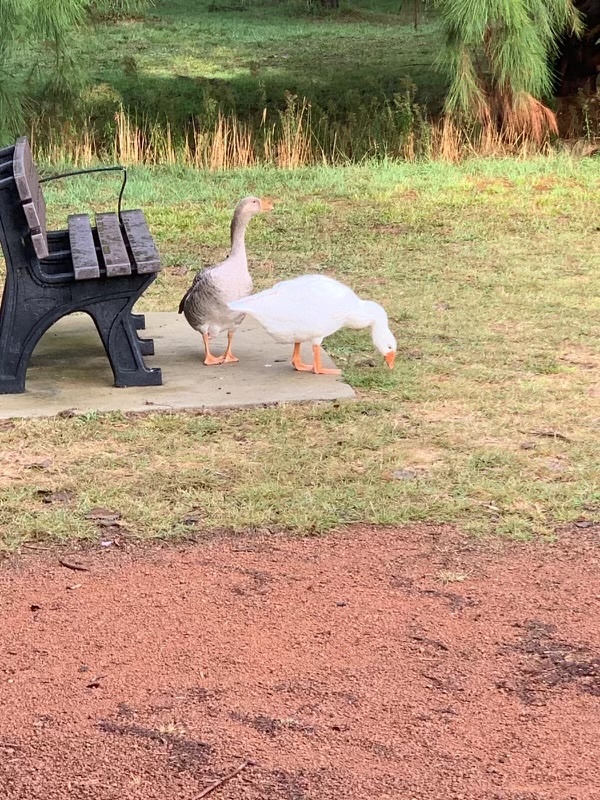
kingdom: Animalia
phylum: Chordata
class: Aves
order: Anseriformes
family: Anatidae
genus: Anser
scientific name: Anser anser
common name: Greylag goose
